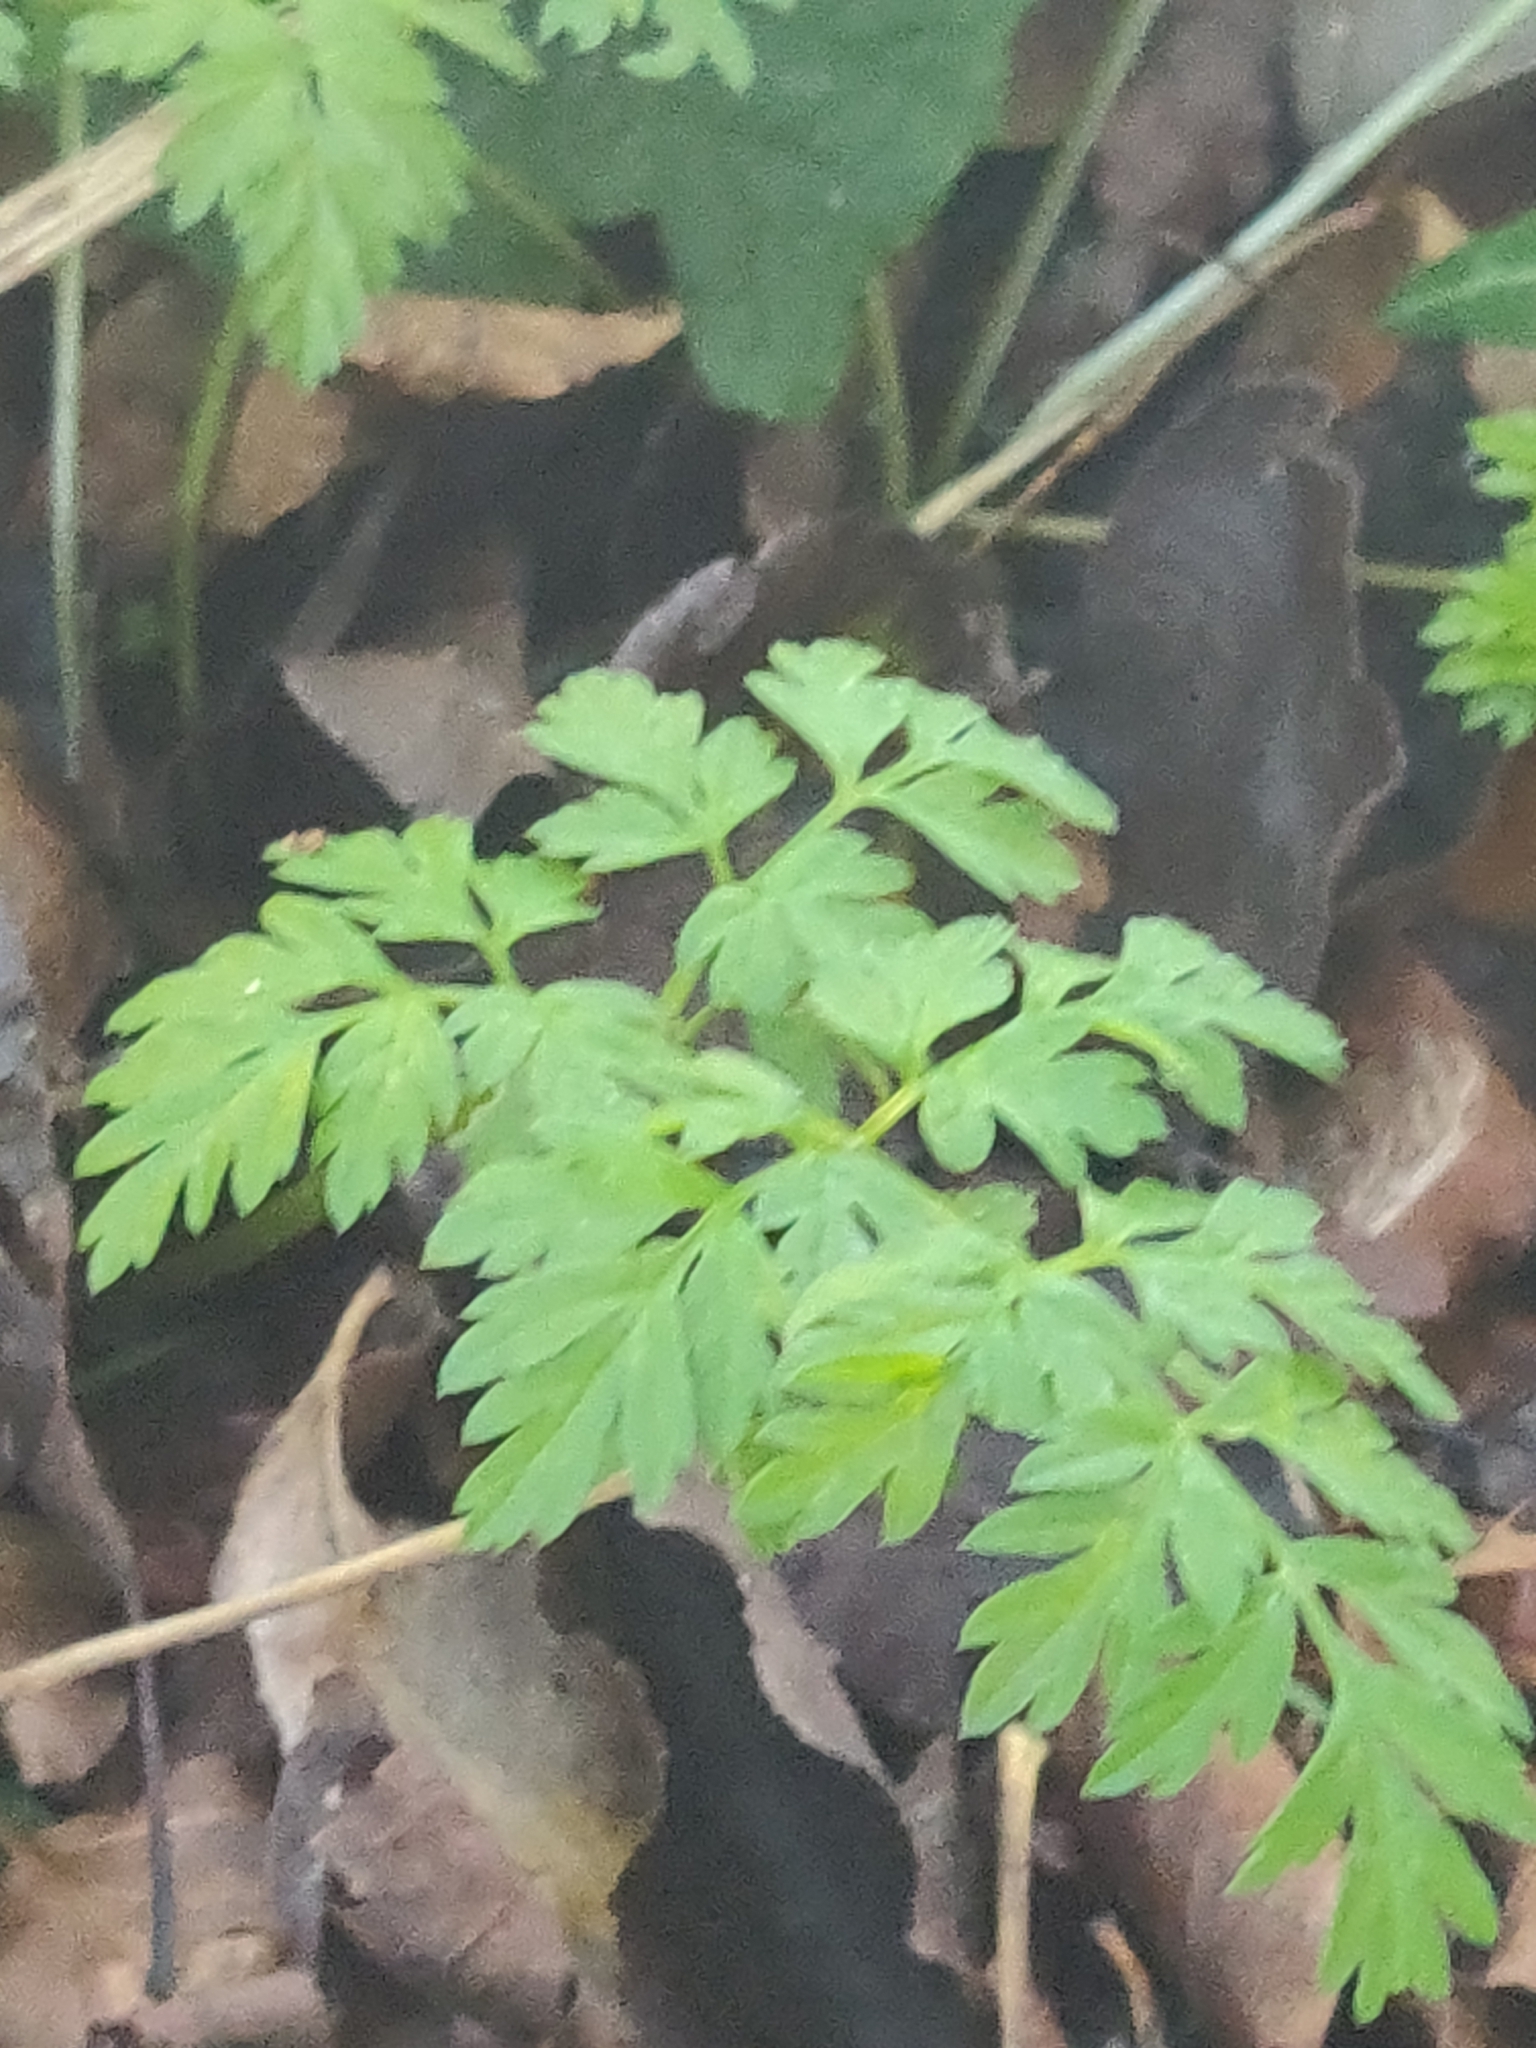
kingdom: Plantae
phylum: Tracheophyta
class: Magnoliopsida
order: Apiales
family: Apiaceae
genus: Anthriscus
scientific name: Anthriscus sylvestris
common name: Cow parsley
